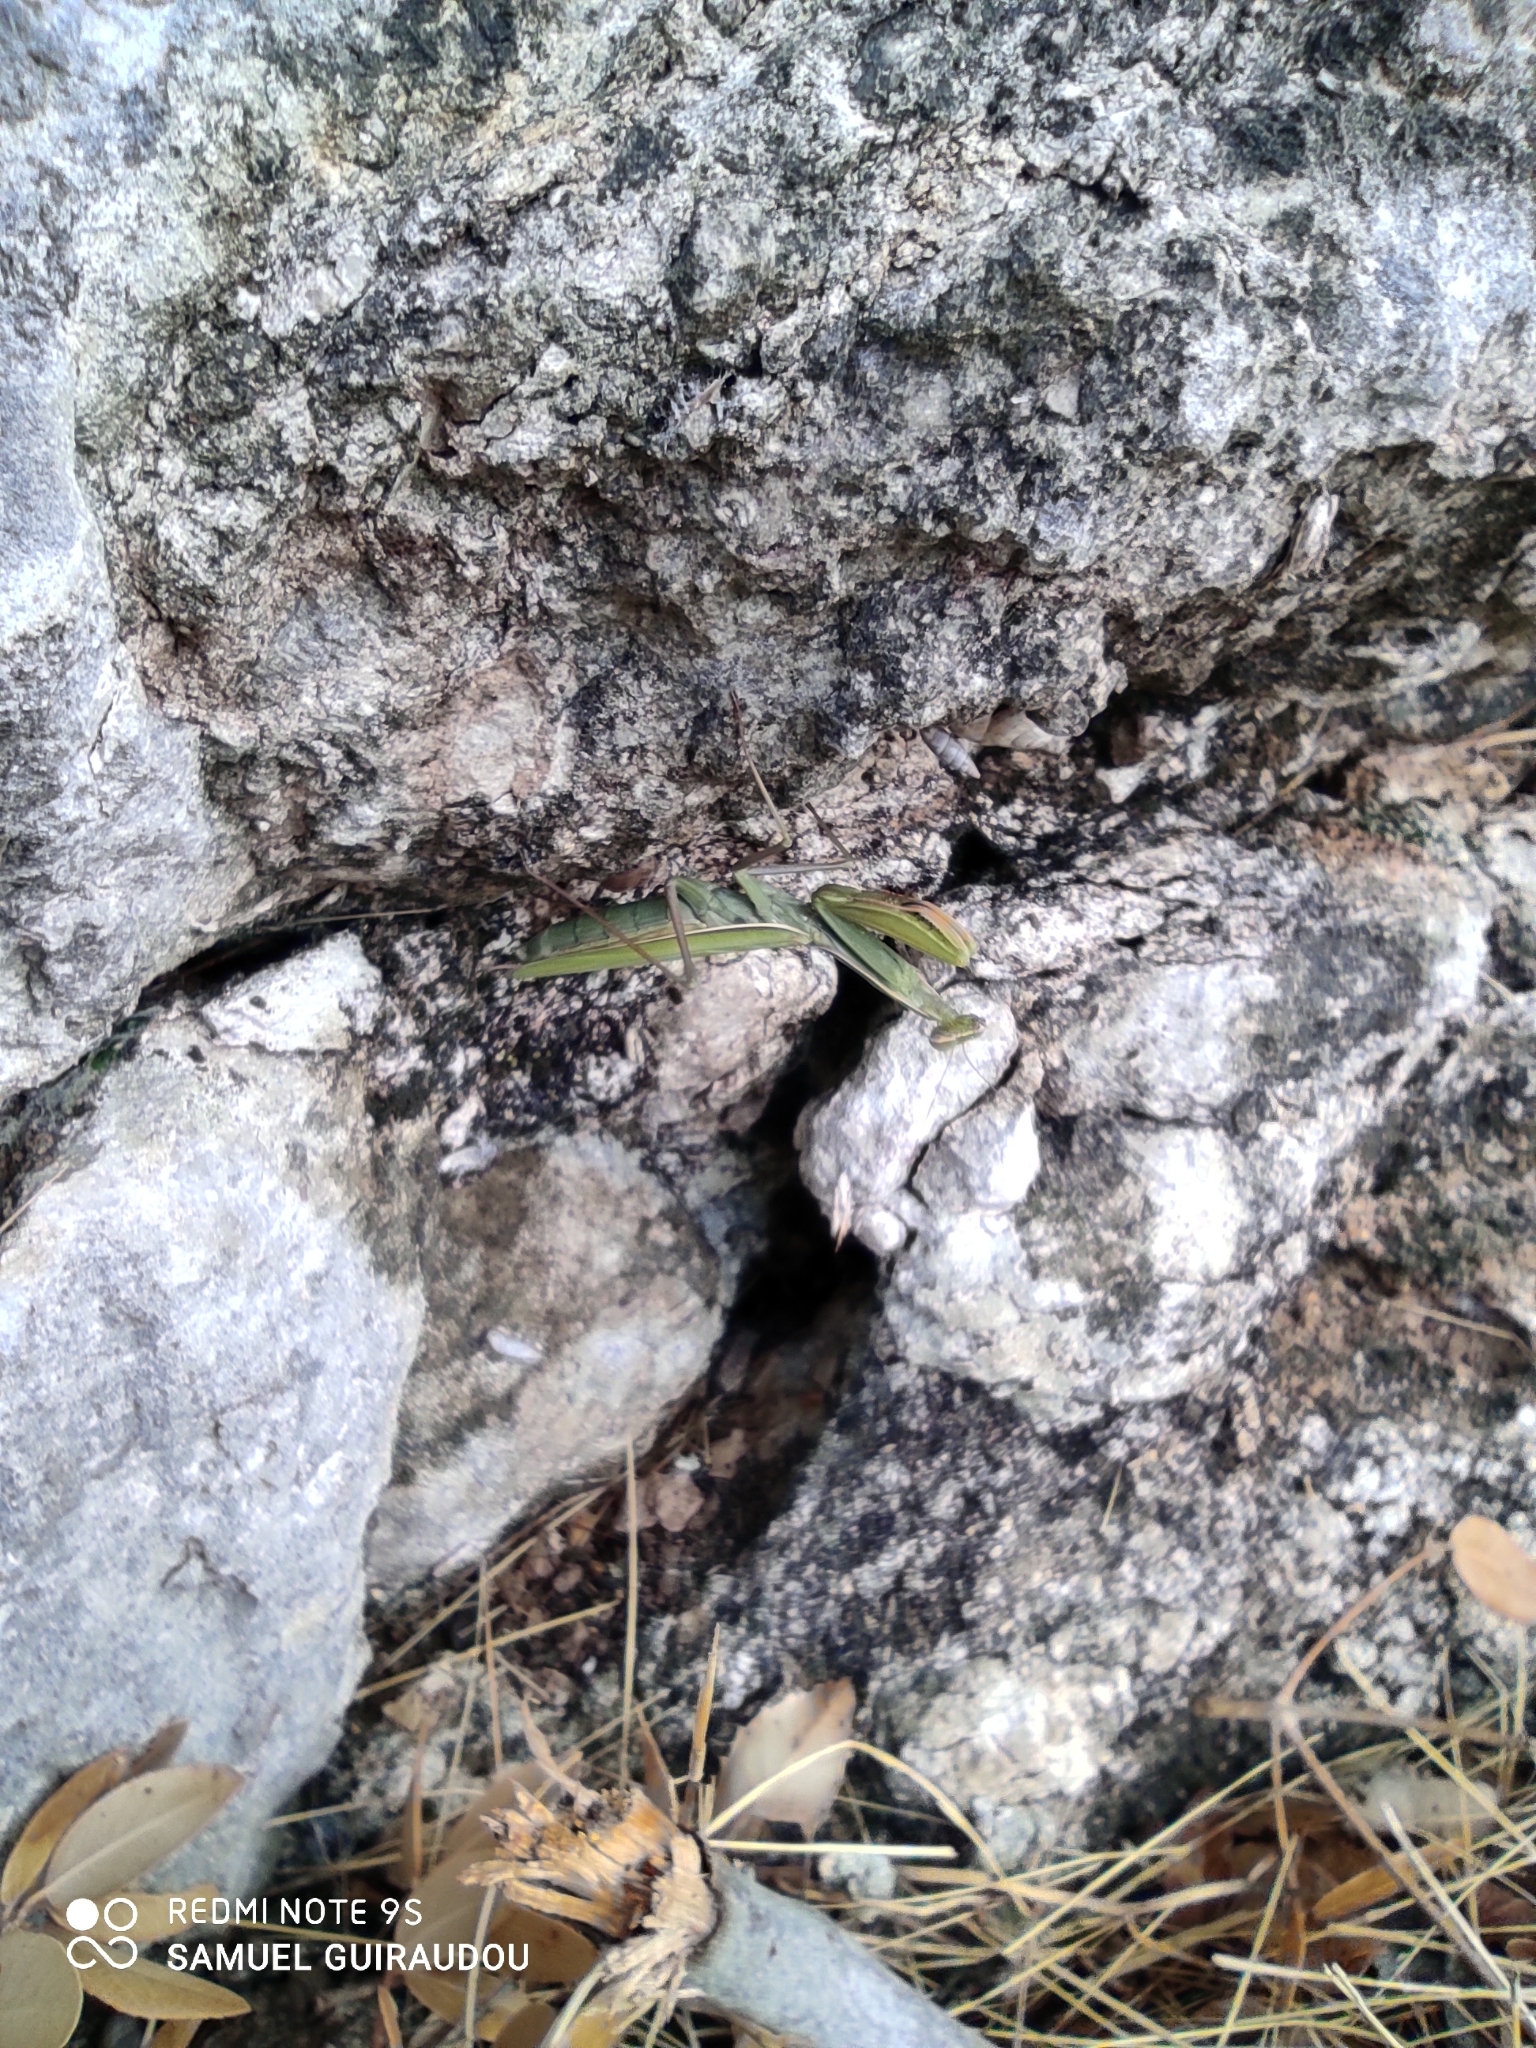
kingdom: Animalia
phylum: Arthropoda
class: Insecta
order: Mantodea
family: Mantidae
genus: Mantis
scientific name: Mantis religiosa
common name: Praying mantis
